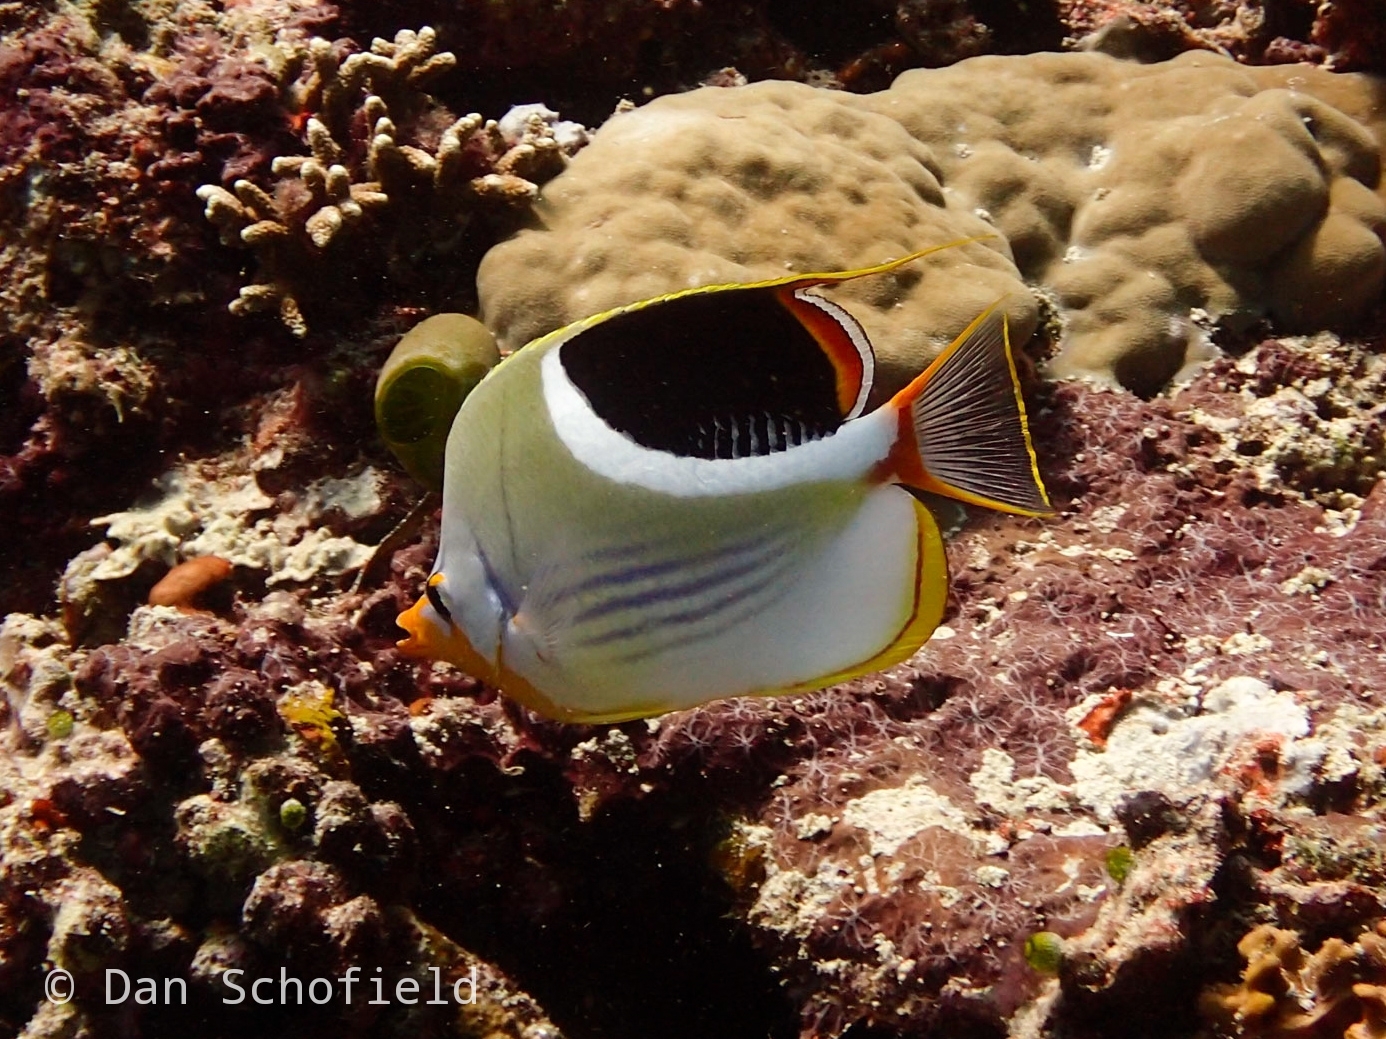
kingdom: Animalia
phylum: Chordata
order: Perciformes
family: Chaetodontidae
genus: Chaetodon
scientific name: Chaetodon ephippium
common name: Saddled butterflyfish
